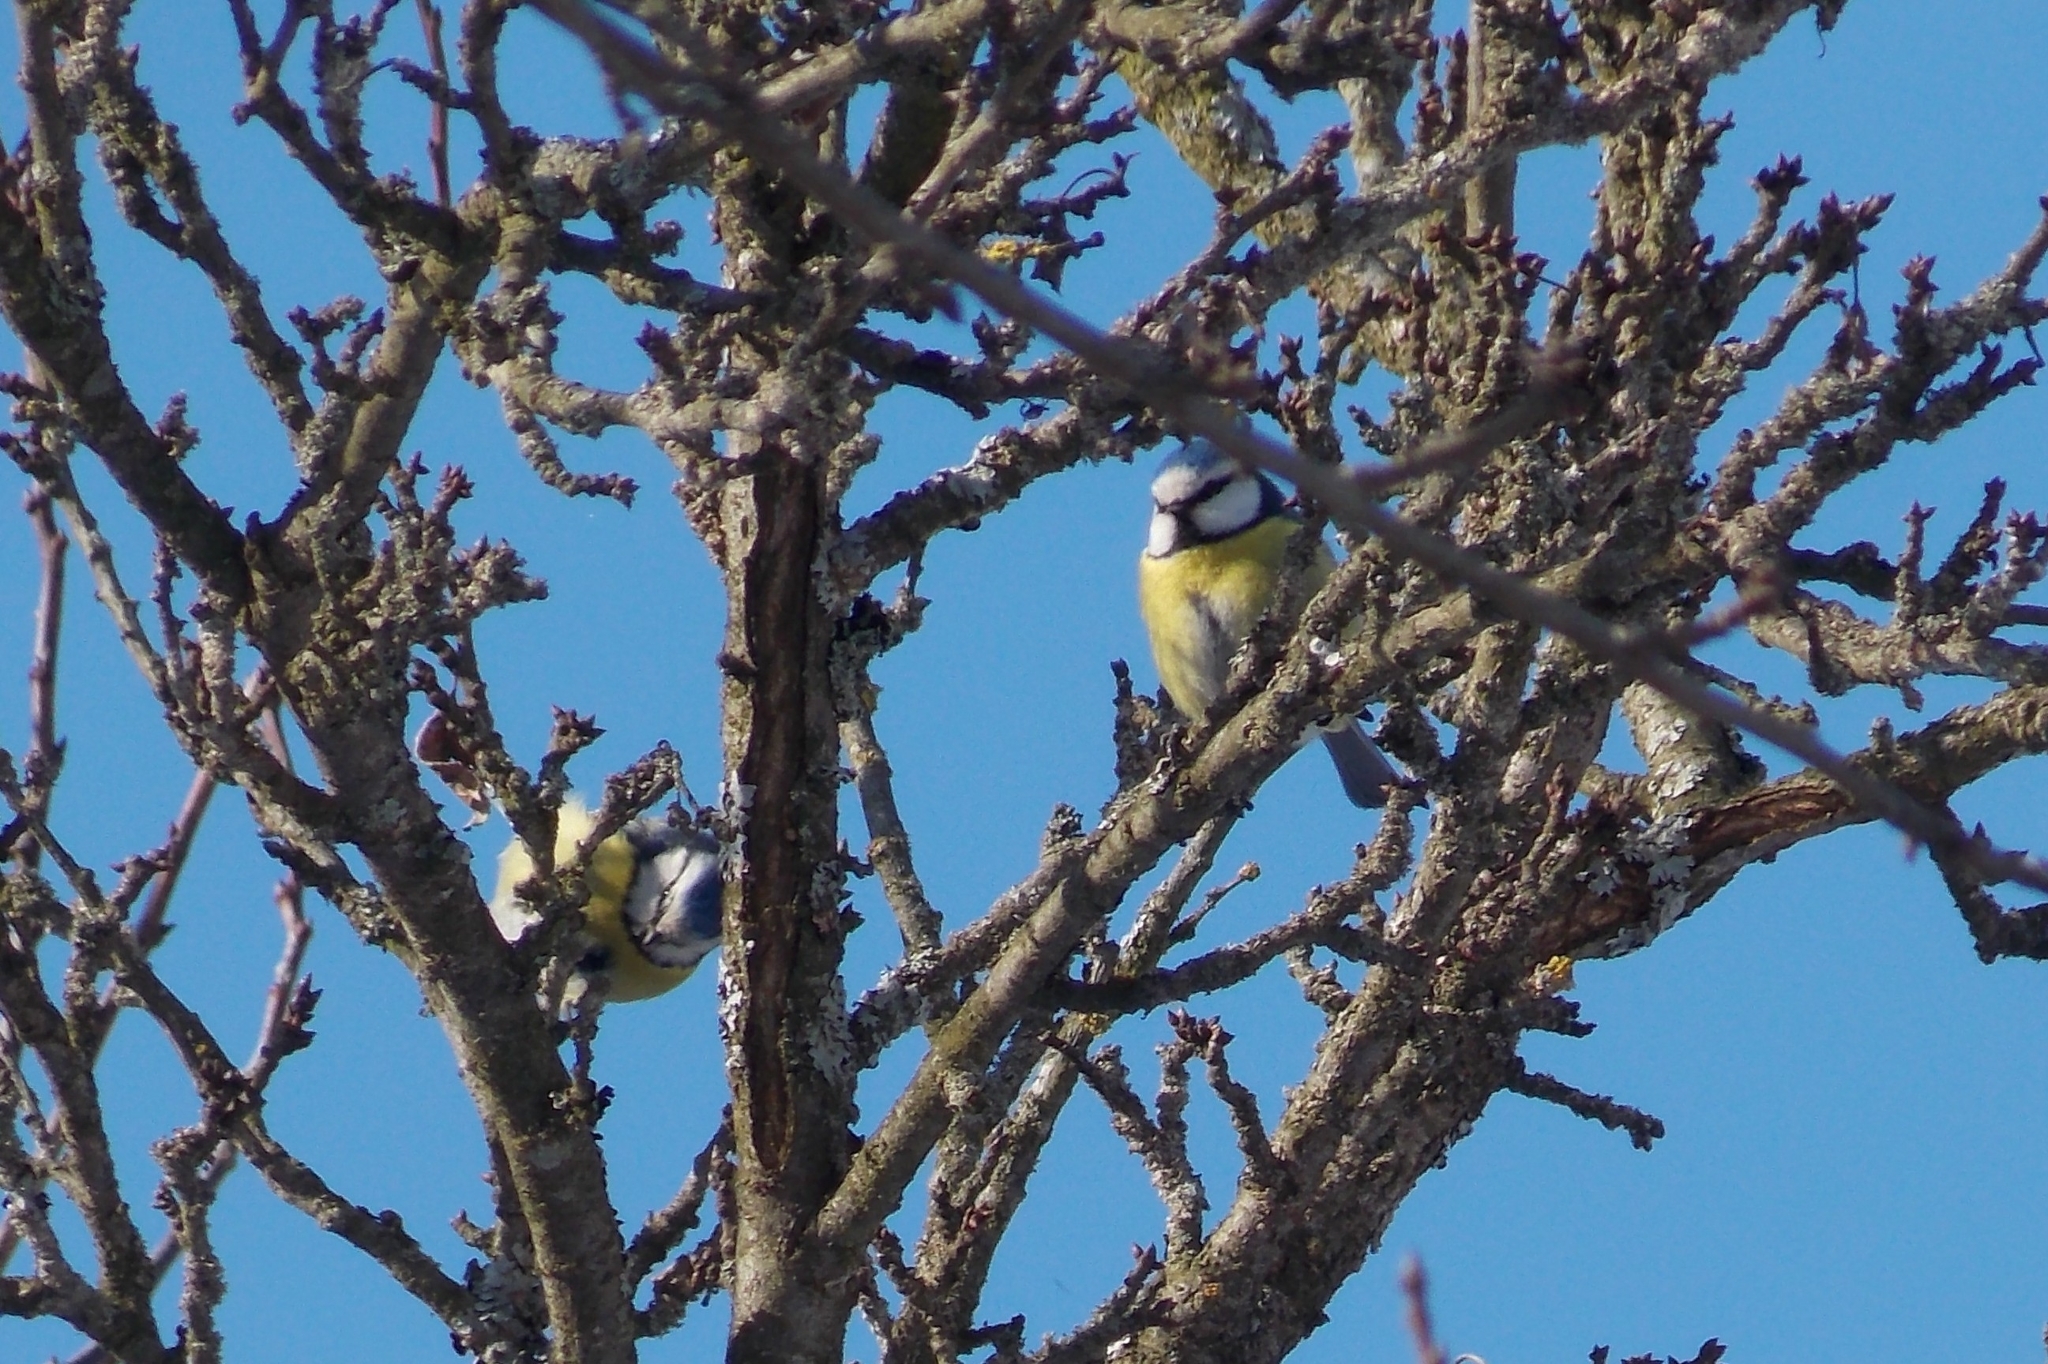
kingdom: Animalia
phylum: Chordata
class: Aves
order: Passeriformes
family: Paridae
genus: Cyanistes
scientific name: Cyanistes caeruleus
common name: Eurasian blue tit
